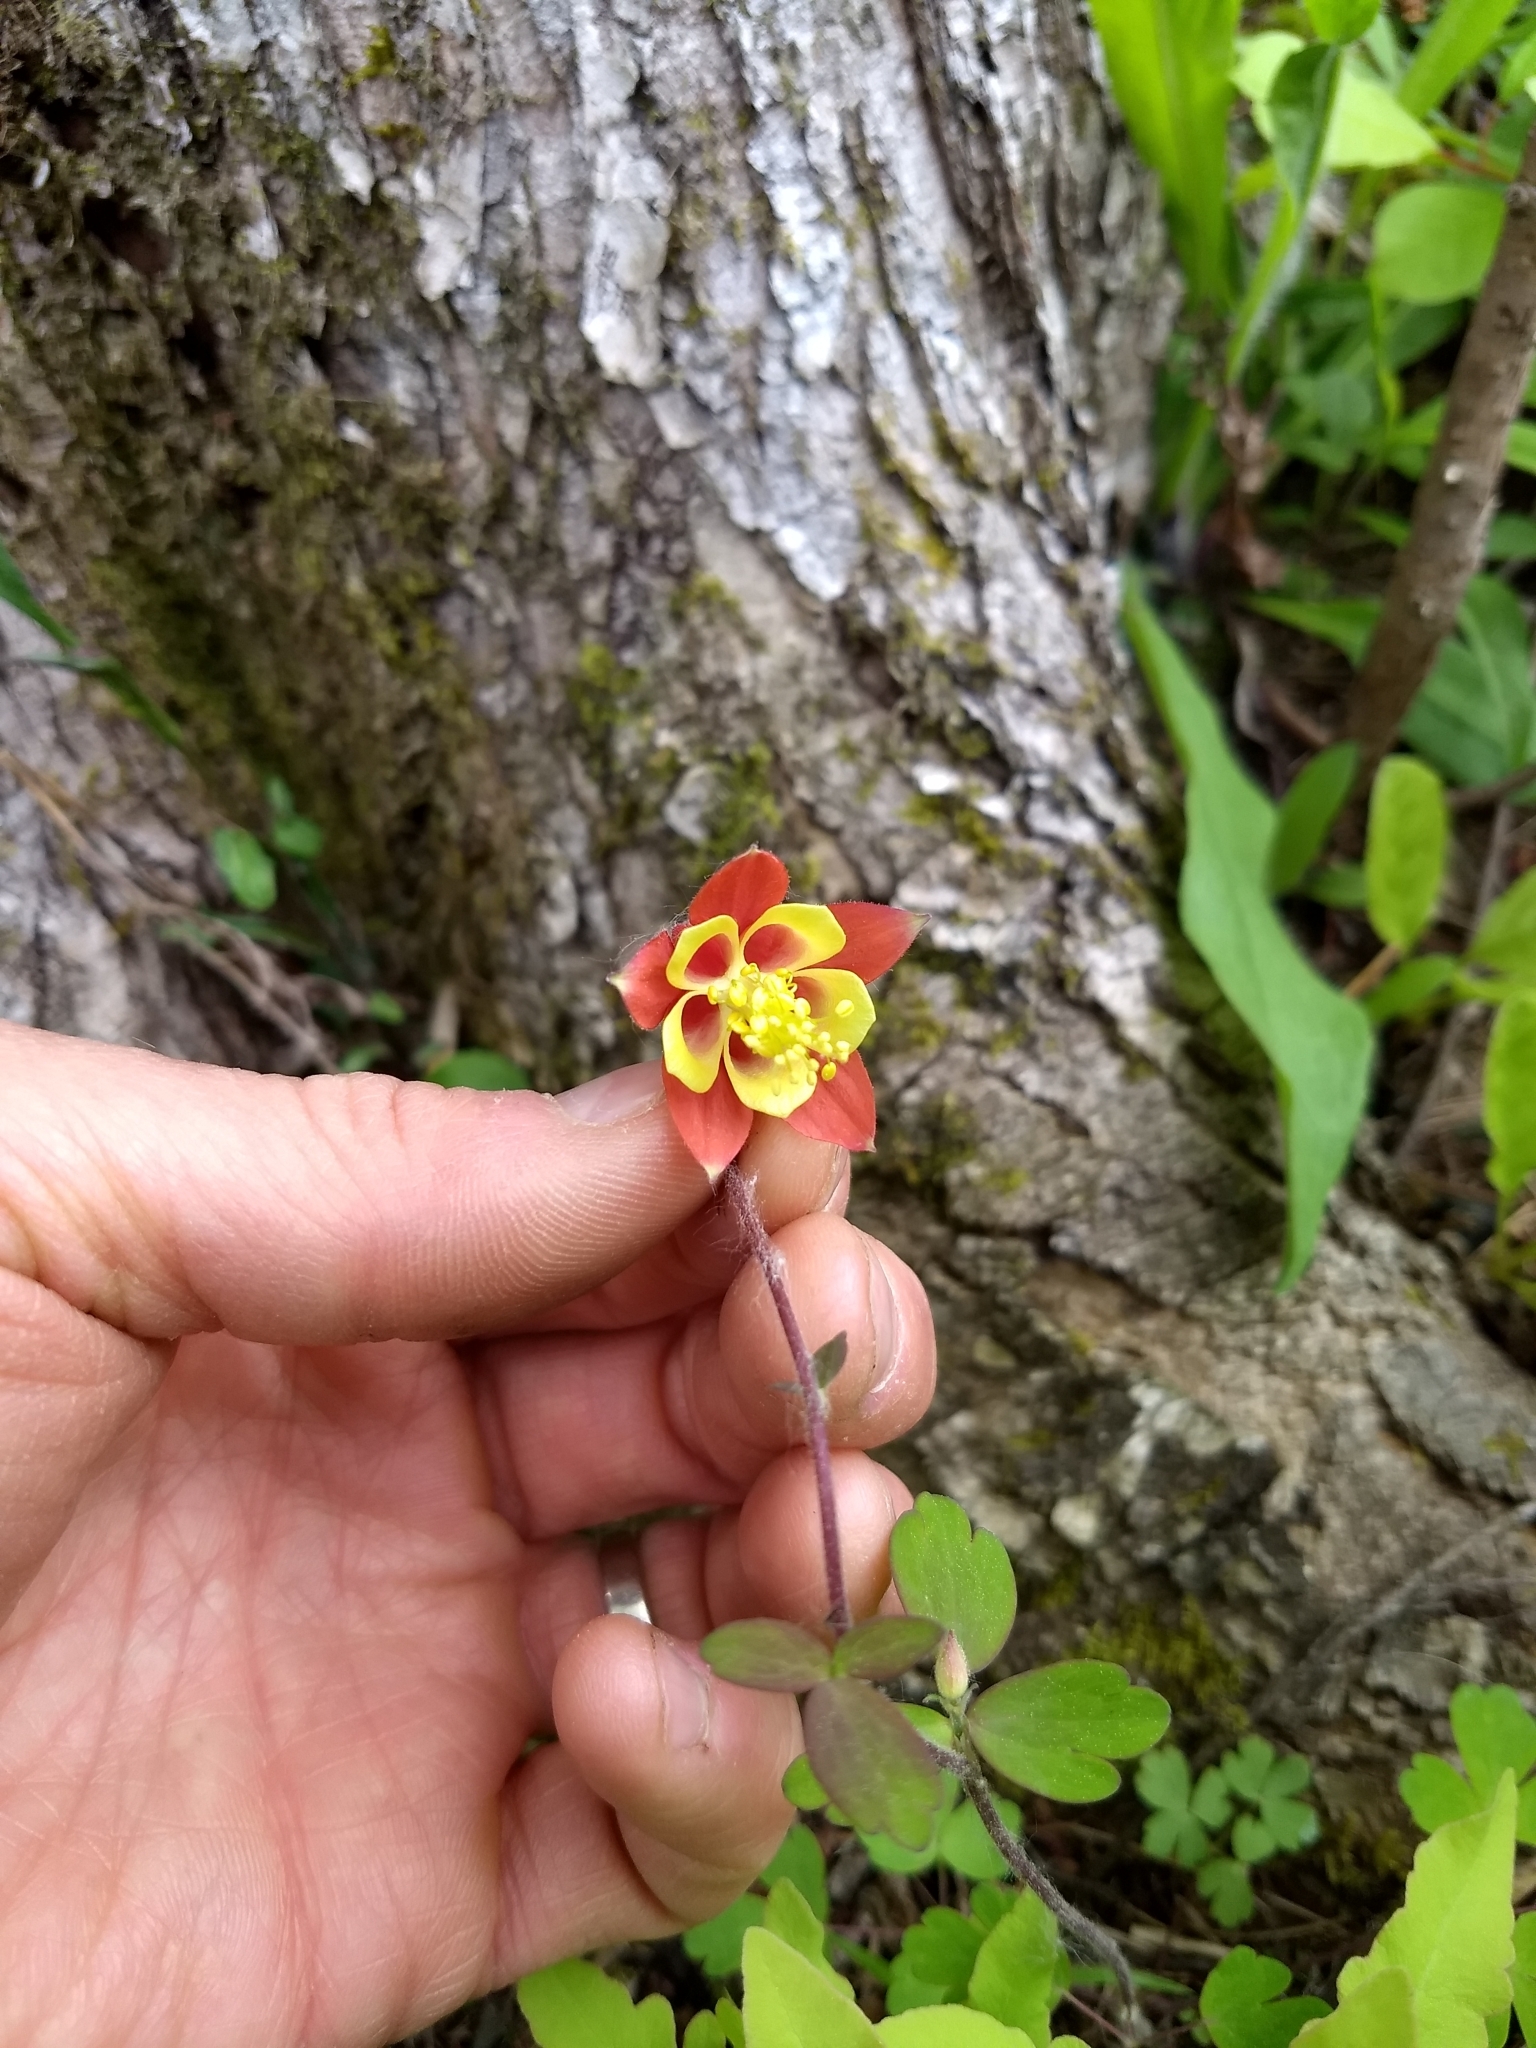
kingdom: Plantae
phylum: Tracheophyta
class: Magnoliopsida
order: Ranunculales
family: Ranunculaceae
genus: Aquilegia
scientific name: Aquilegia canadensis
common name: American columbine
